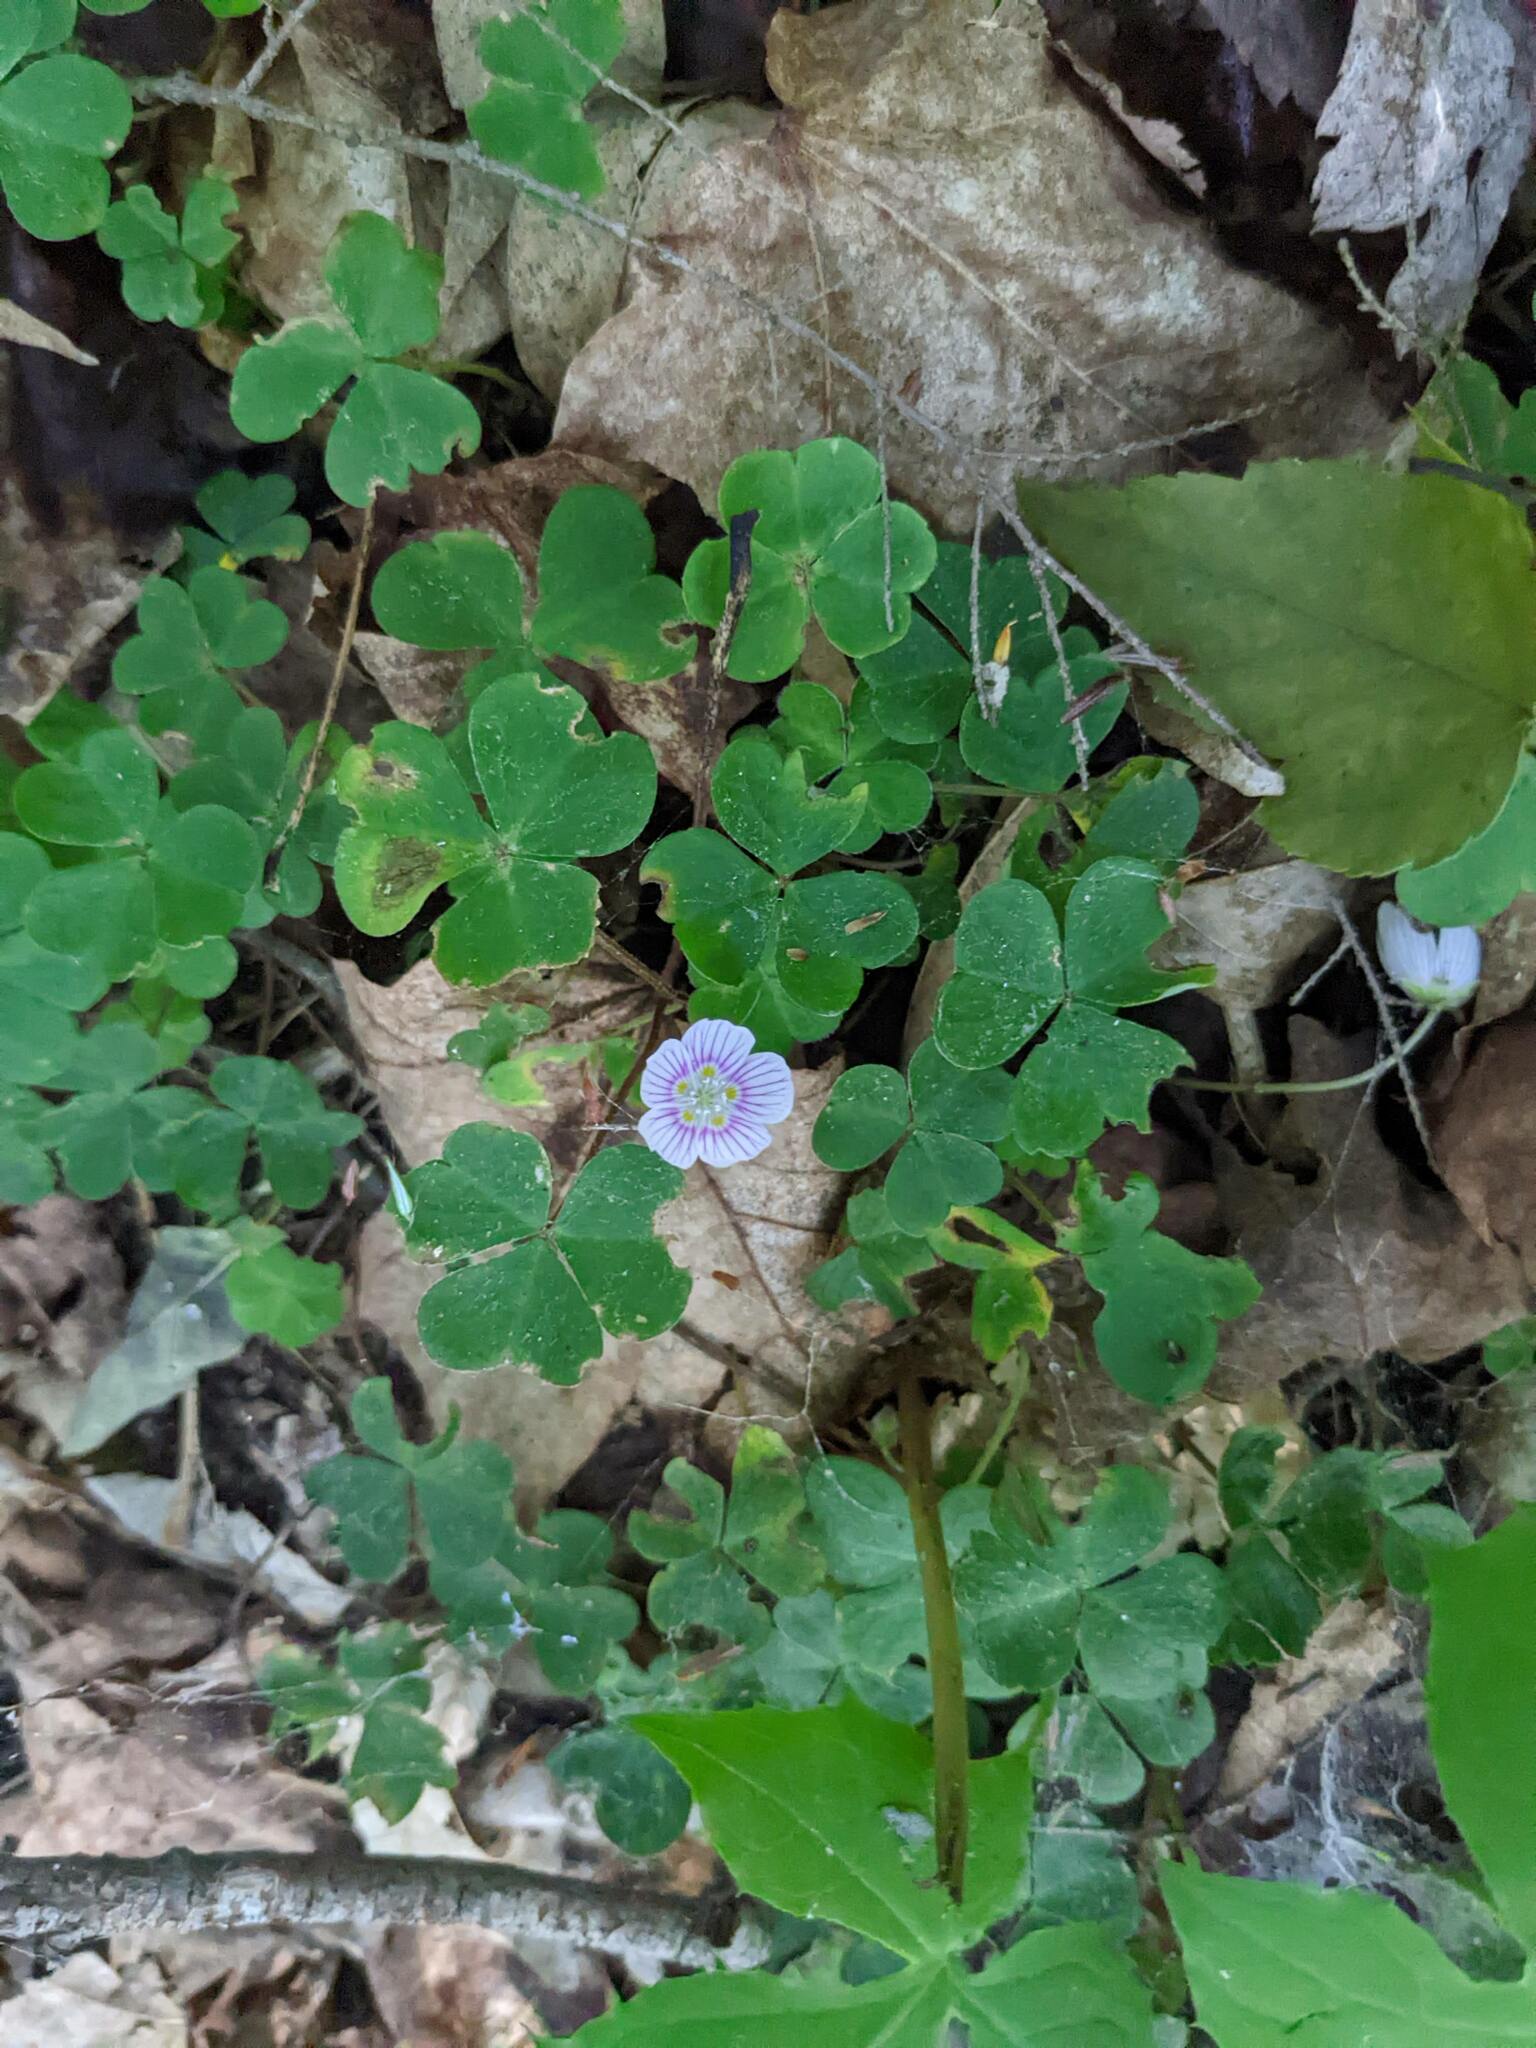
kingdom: Plantae
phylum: Tracheophyta
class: Magnoliopsida
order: Oxalidales
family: Oxalidaceae
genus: Oxalis
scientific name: Oxalis montana
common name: American wood-sorrel
